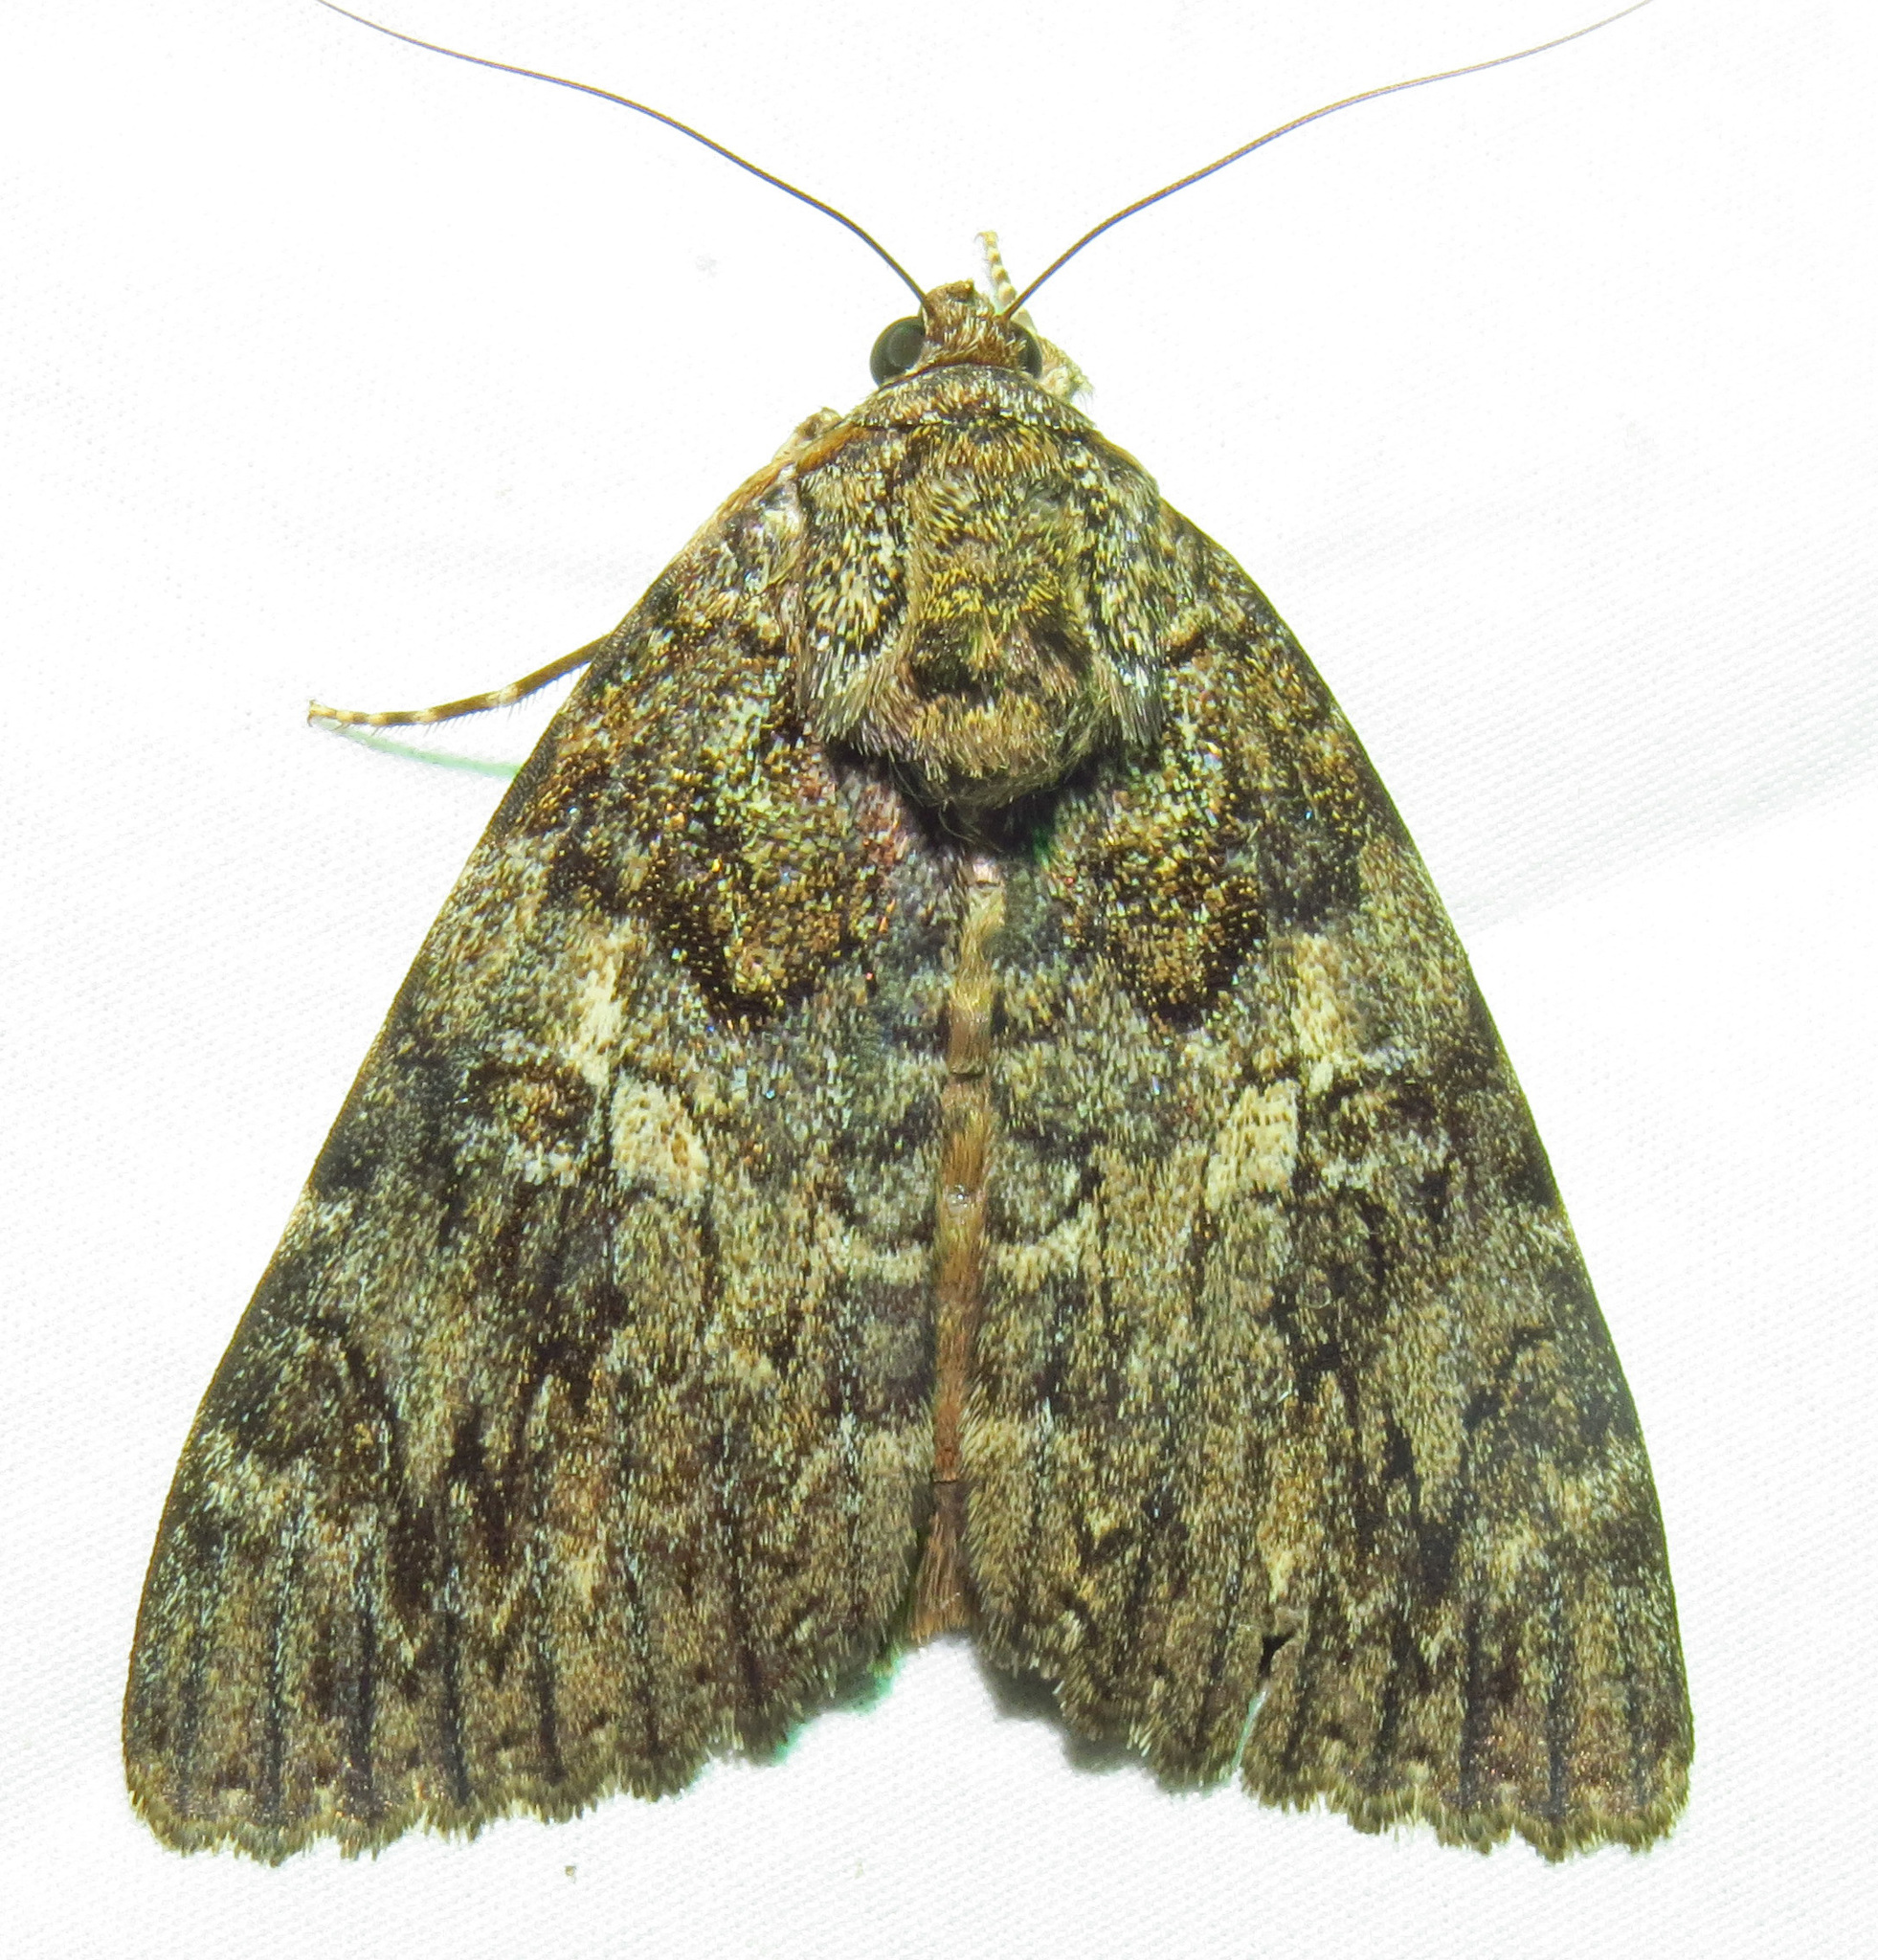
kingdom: Animalia
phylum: Arthropoda
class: Insecta
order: Lepidoptera
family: Erebidae
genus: Catocala
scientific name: Catocala umbrosa
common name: Umber underwing
